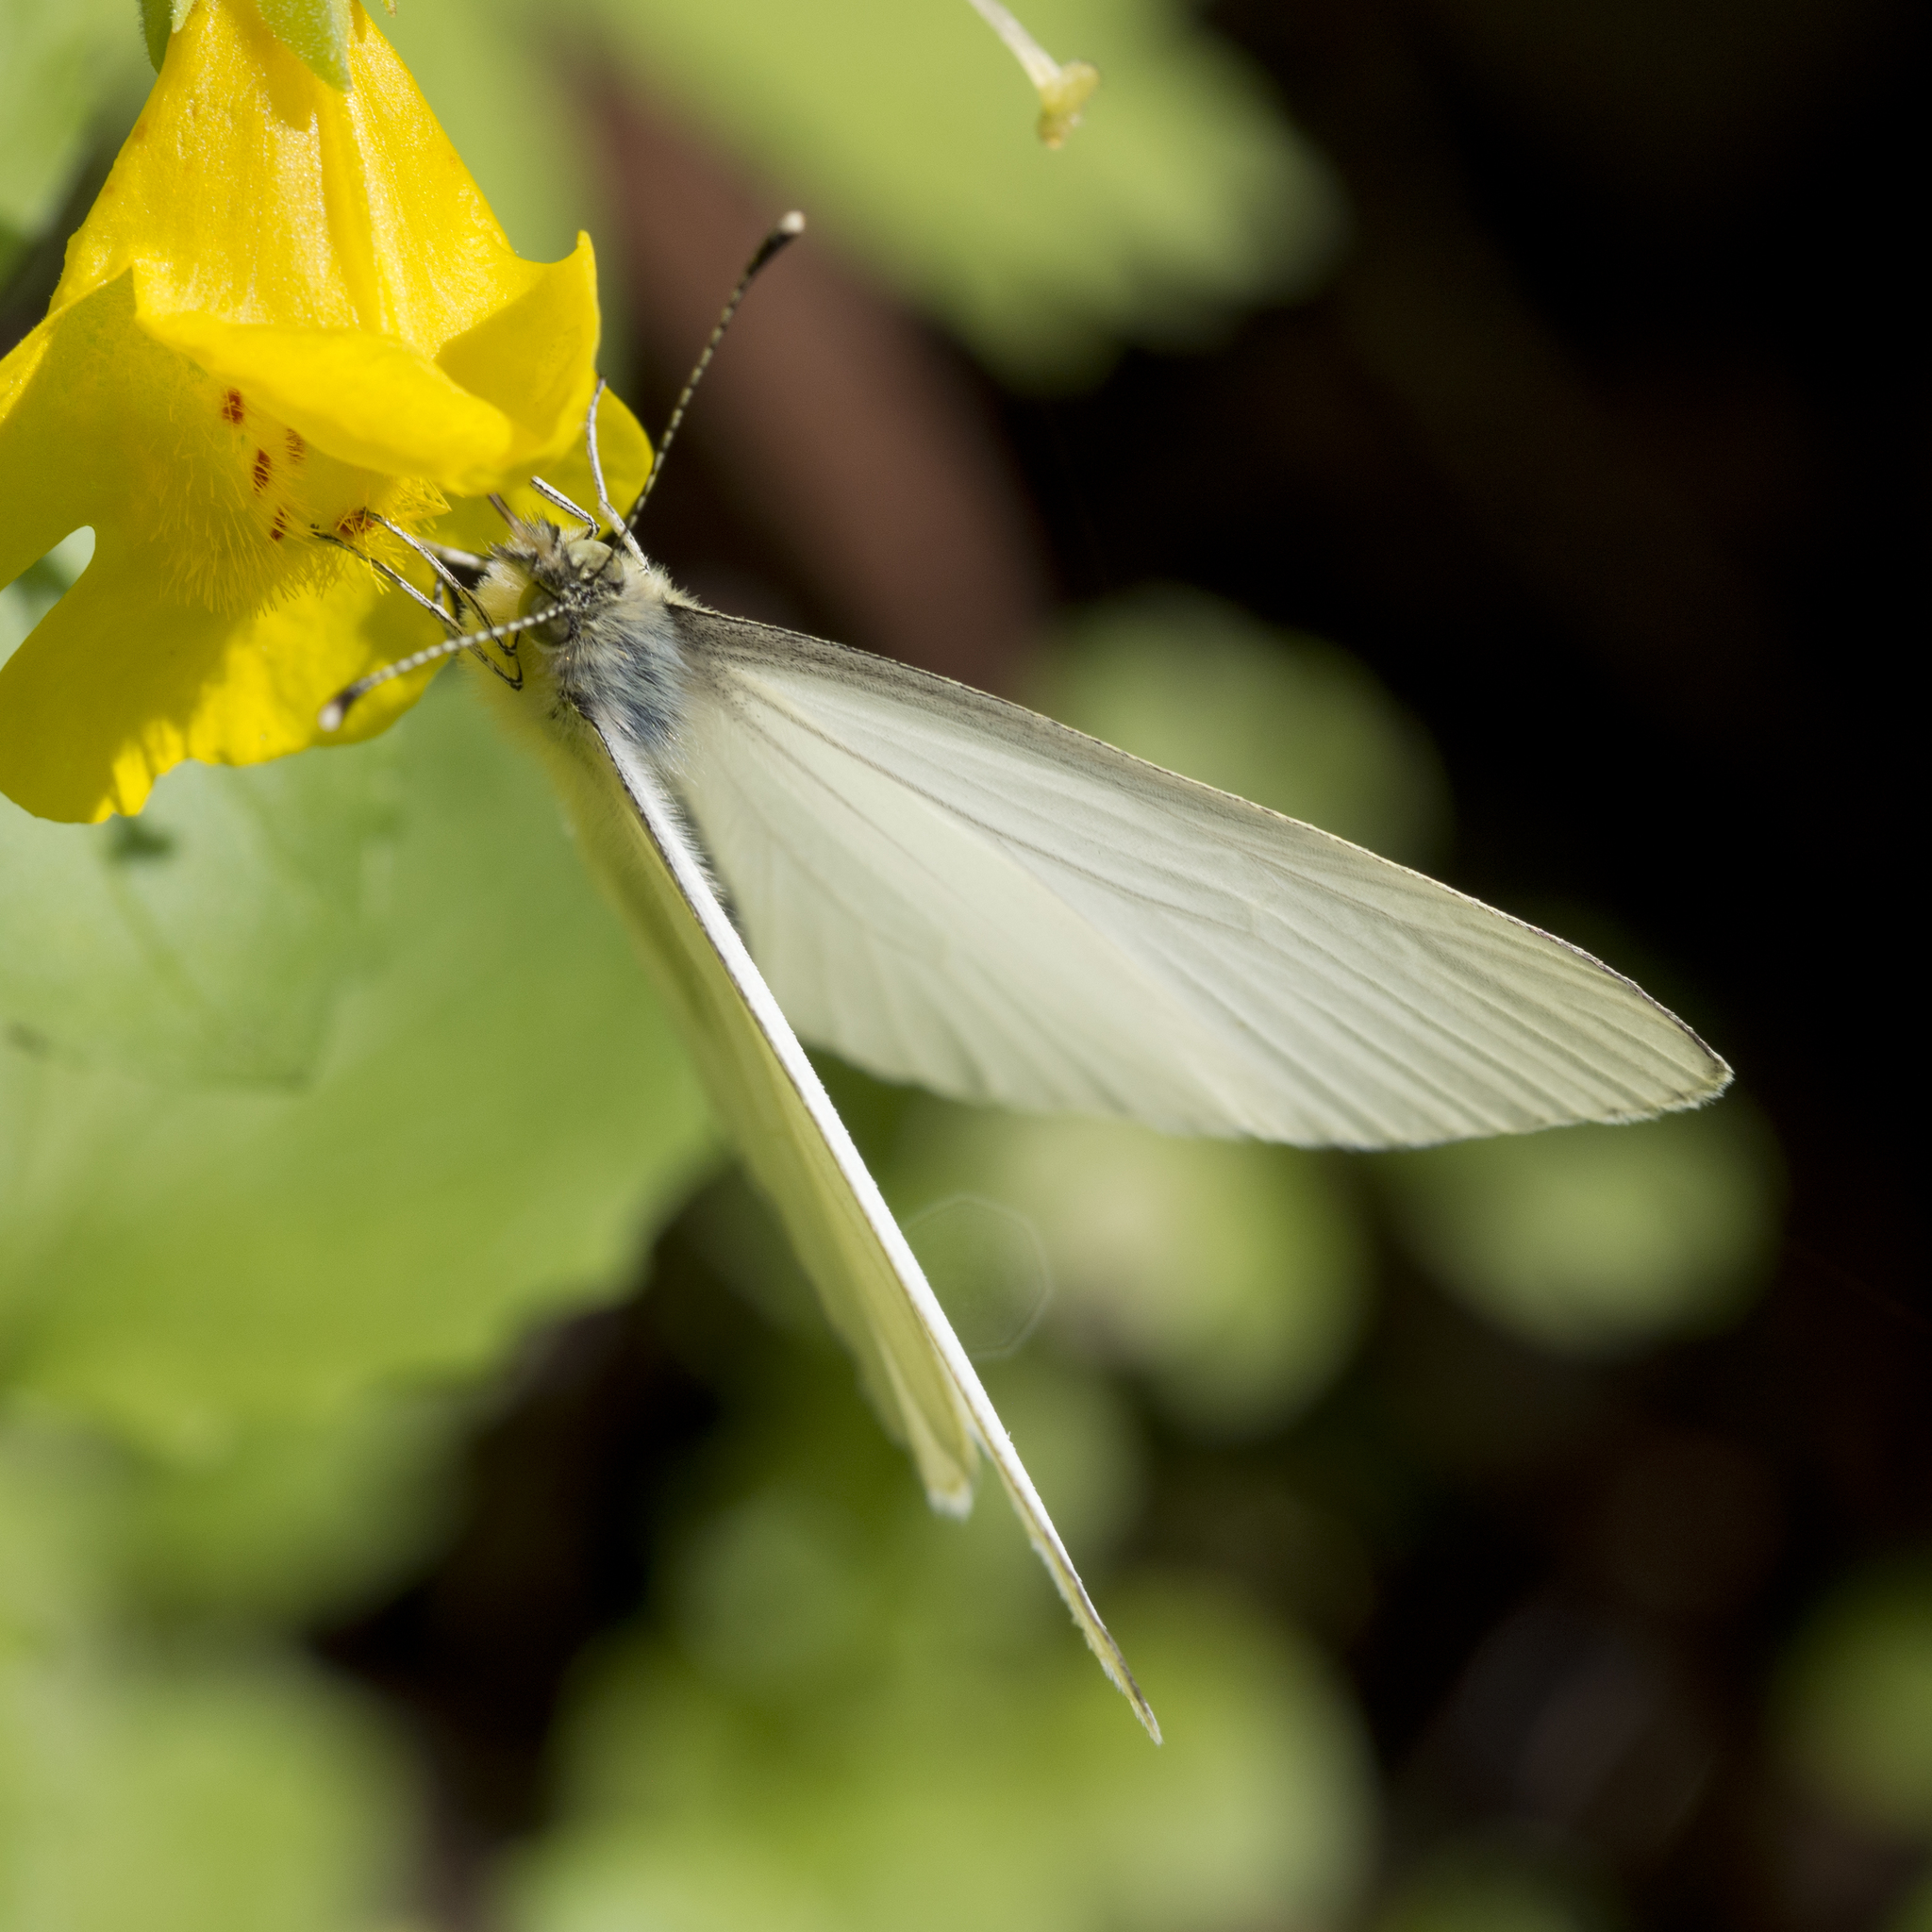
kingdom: Animalia
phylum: Arthropoda
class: Insecta
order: Lepidoptera
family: Pieridae
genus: Pieris
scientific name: Pieris marginalis
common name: Margined white
